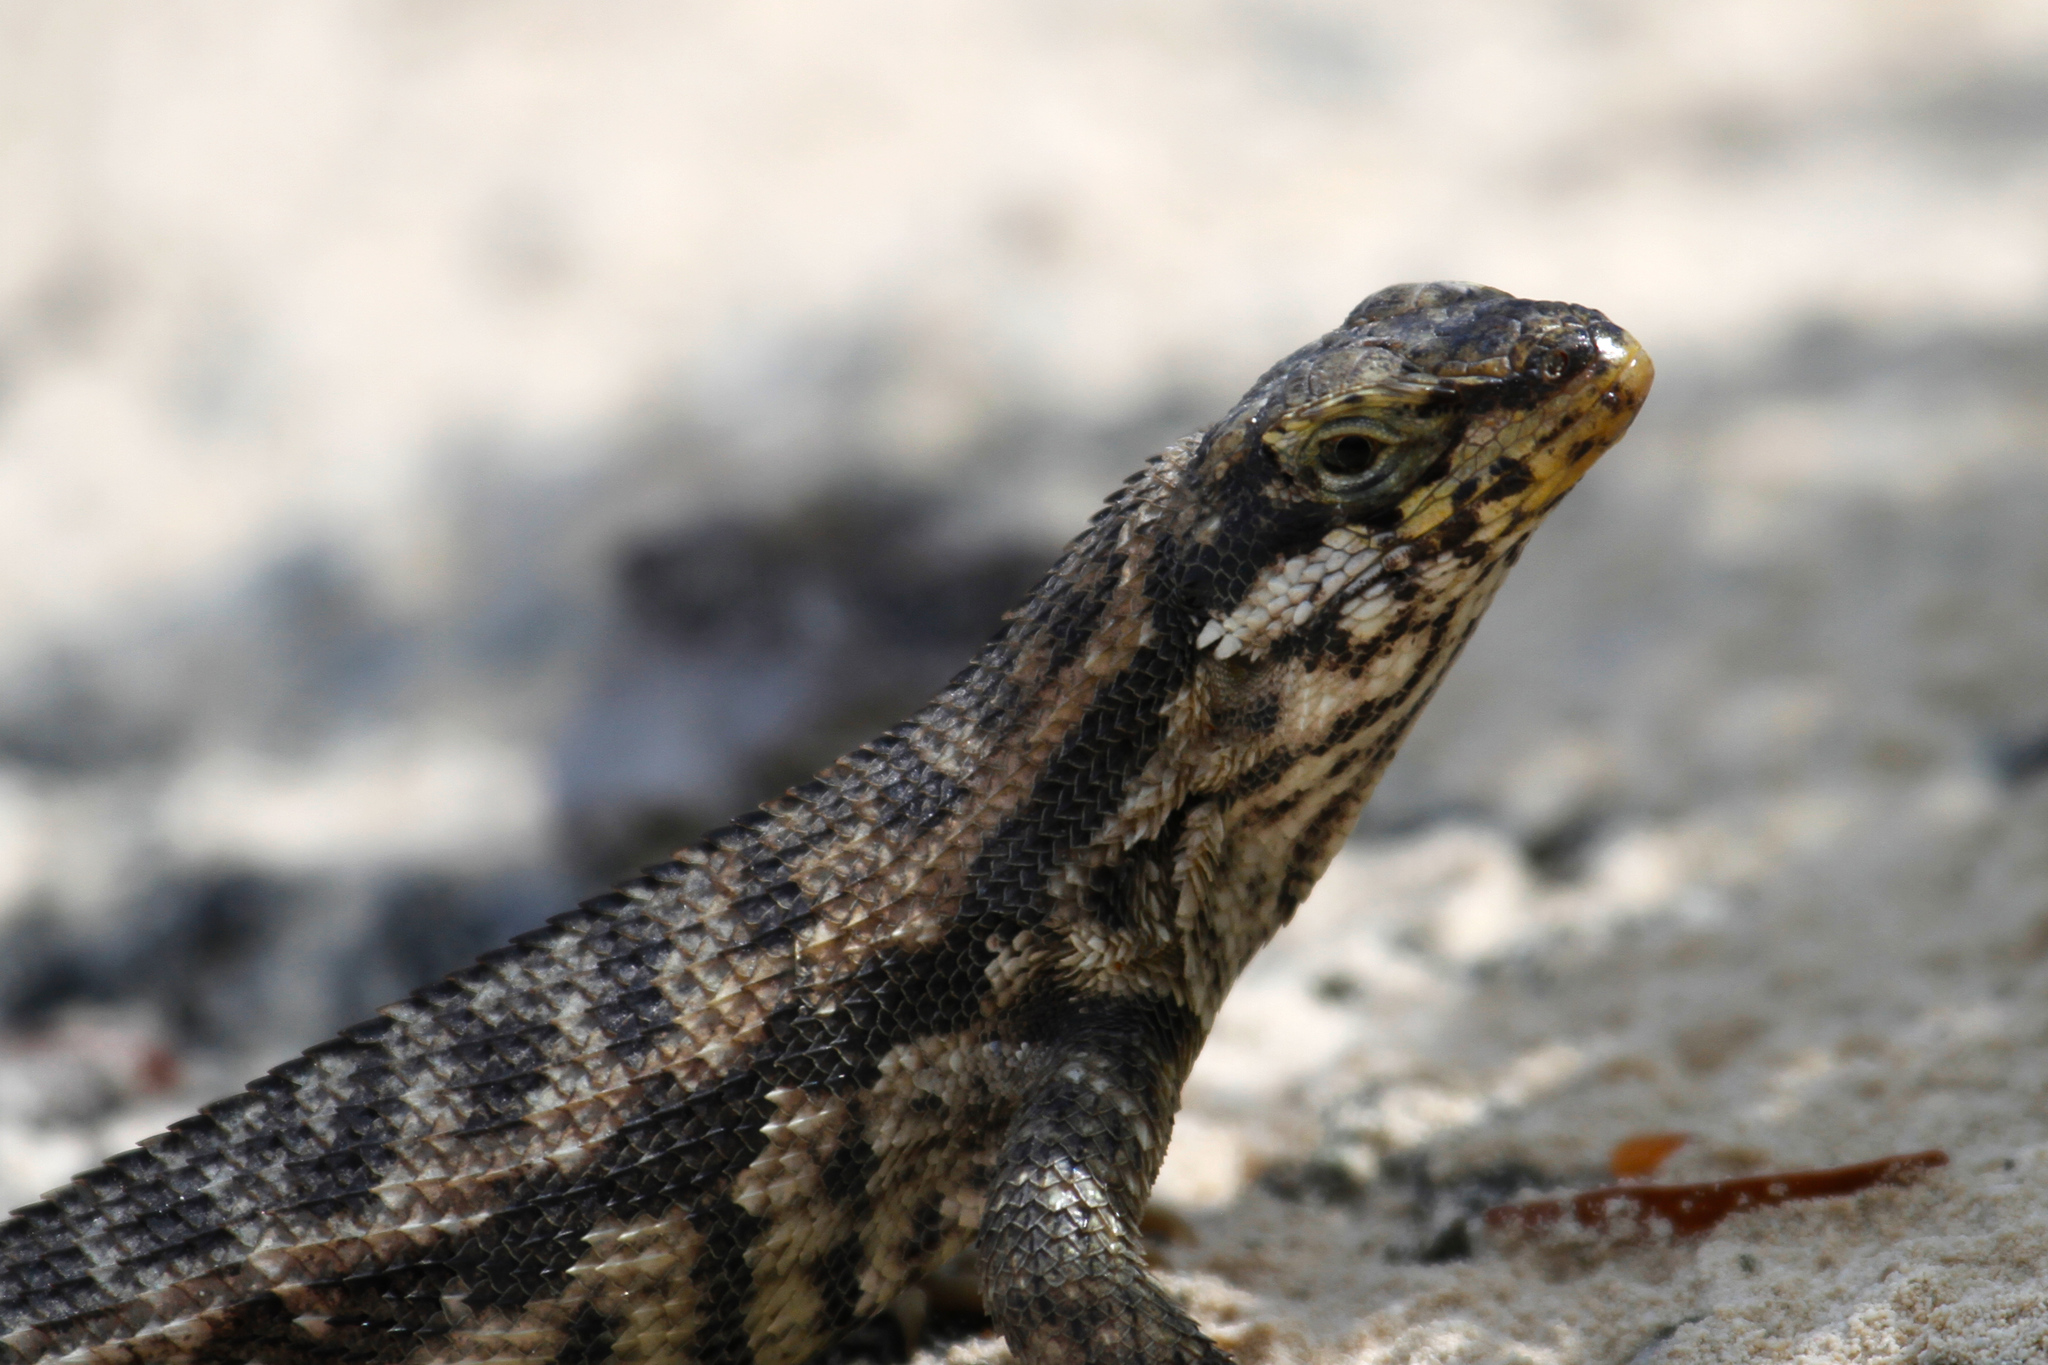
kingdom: Animalia
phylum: Chordata
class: Squamata
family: Leiocephalidae
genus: Leiocephalus
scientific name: Leiocephalus carinatus
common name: Northern curly-tailed lizard
